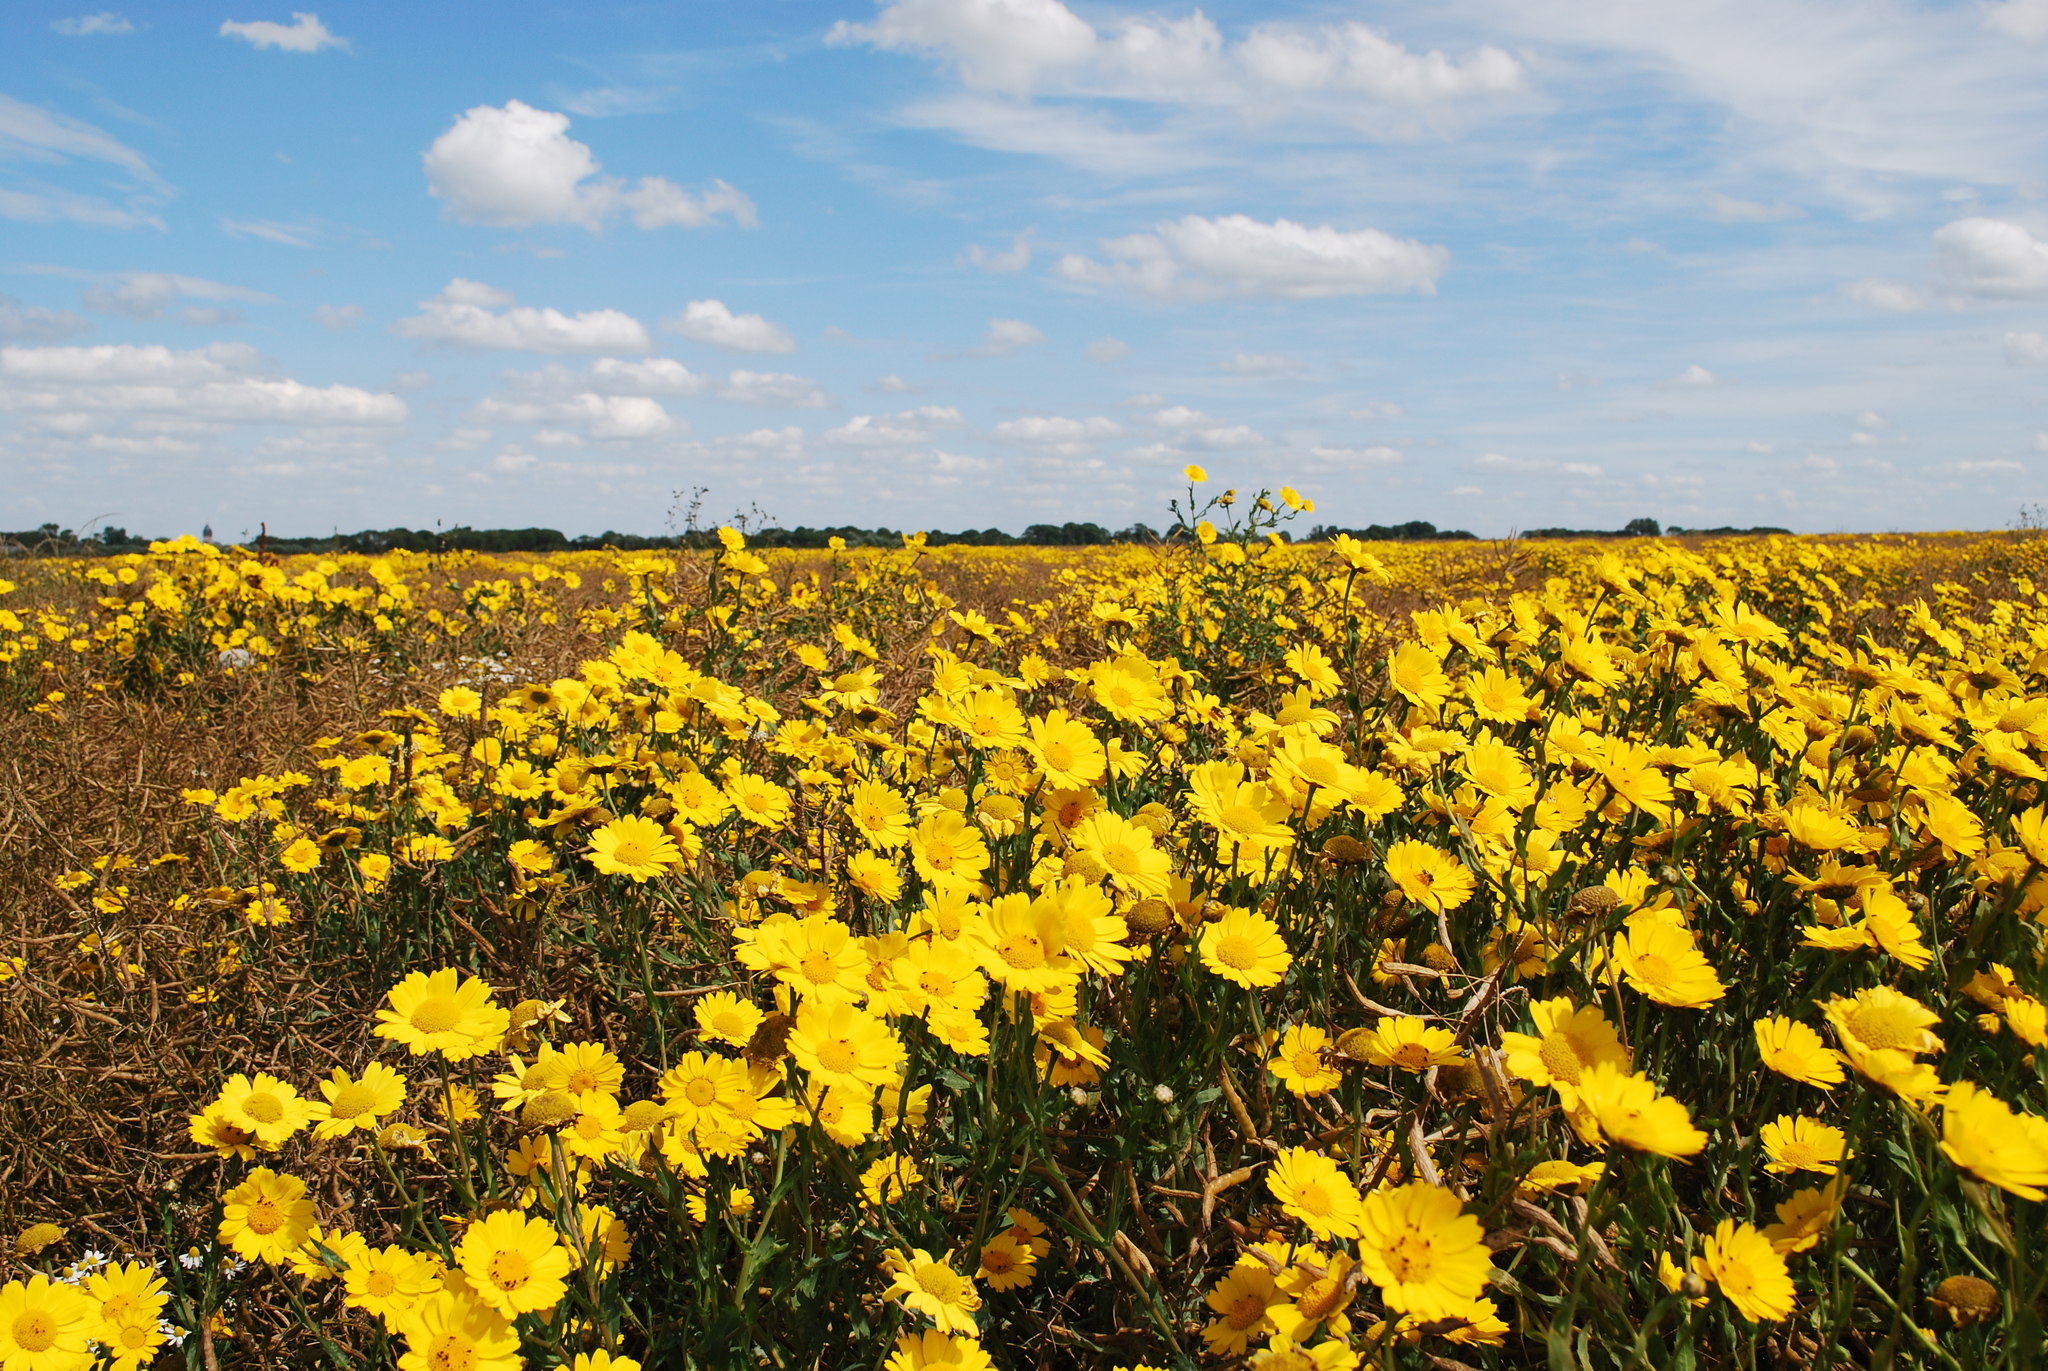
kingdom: Plantae
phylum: Tracheophyta
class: Magnoliopsida
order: Asterales
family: Asteraceae
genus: Glebionis
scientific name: Glebionis segetum
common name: Corndaisy
